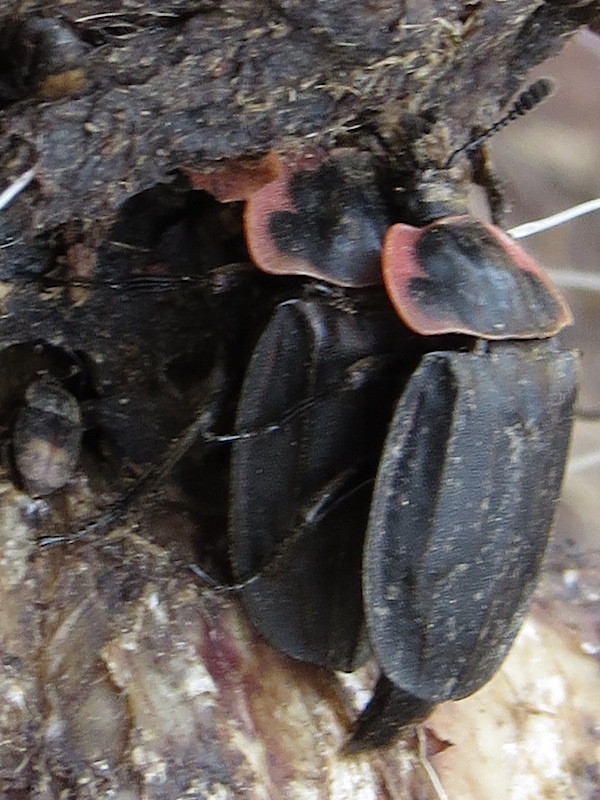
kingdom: Animalia
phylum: Arthropoda
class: Insecta
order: Coleoptera
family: Staphylinidae
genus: Oiceoptoma
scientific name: Oiceoptoma noveboracense
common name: Margined carrion beetle
